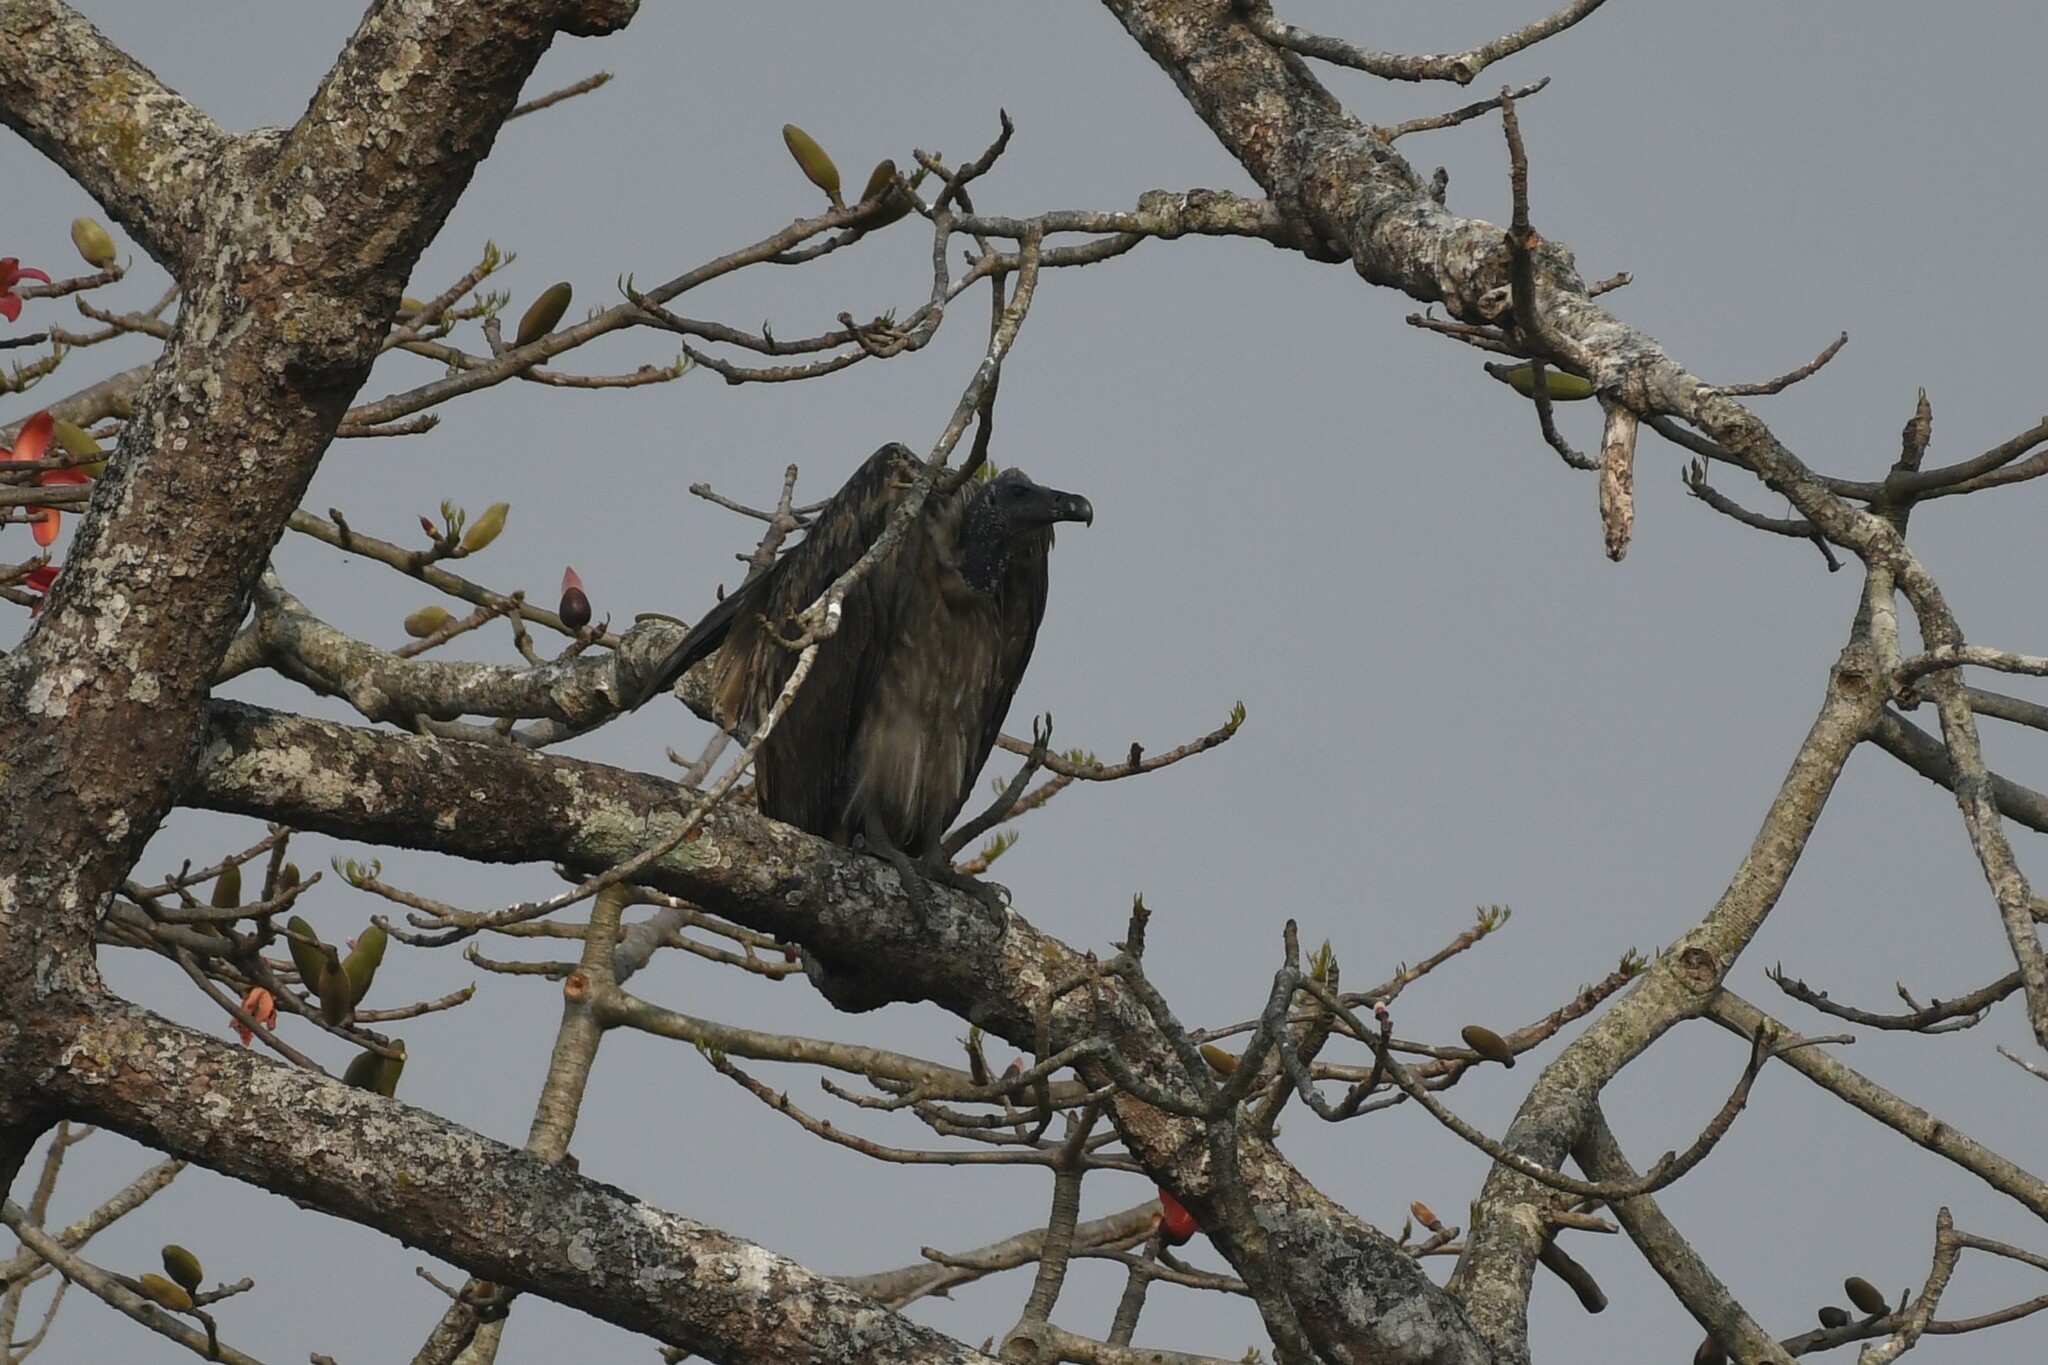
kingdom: Animalia
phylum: Chordata
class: Aves
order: Accipitriformes
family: Accipitridae
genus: Gyps
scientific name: Gyps tenuirostris
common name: Slender-billed vulture
